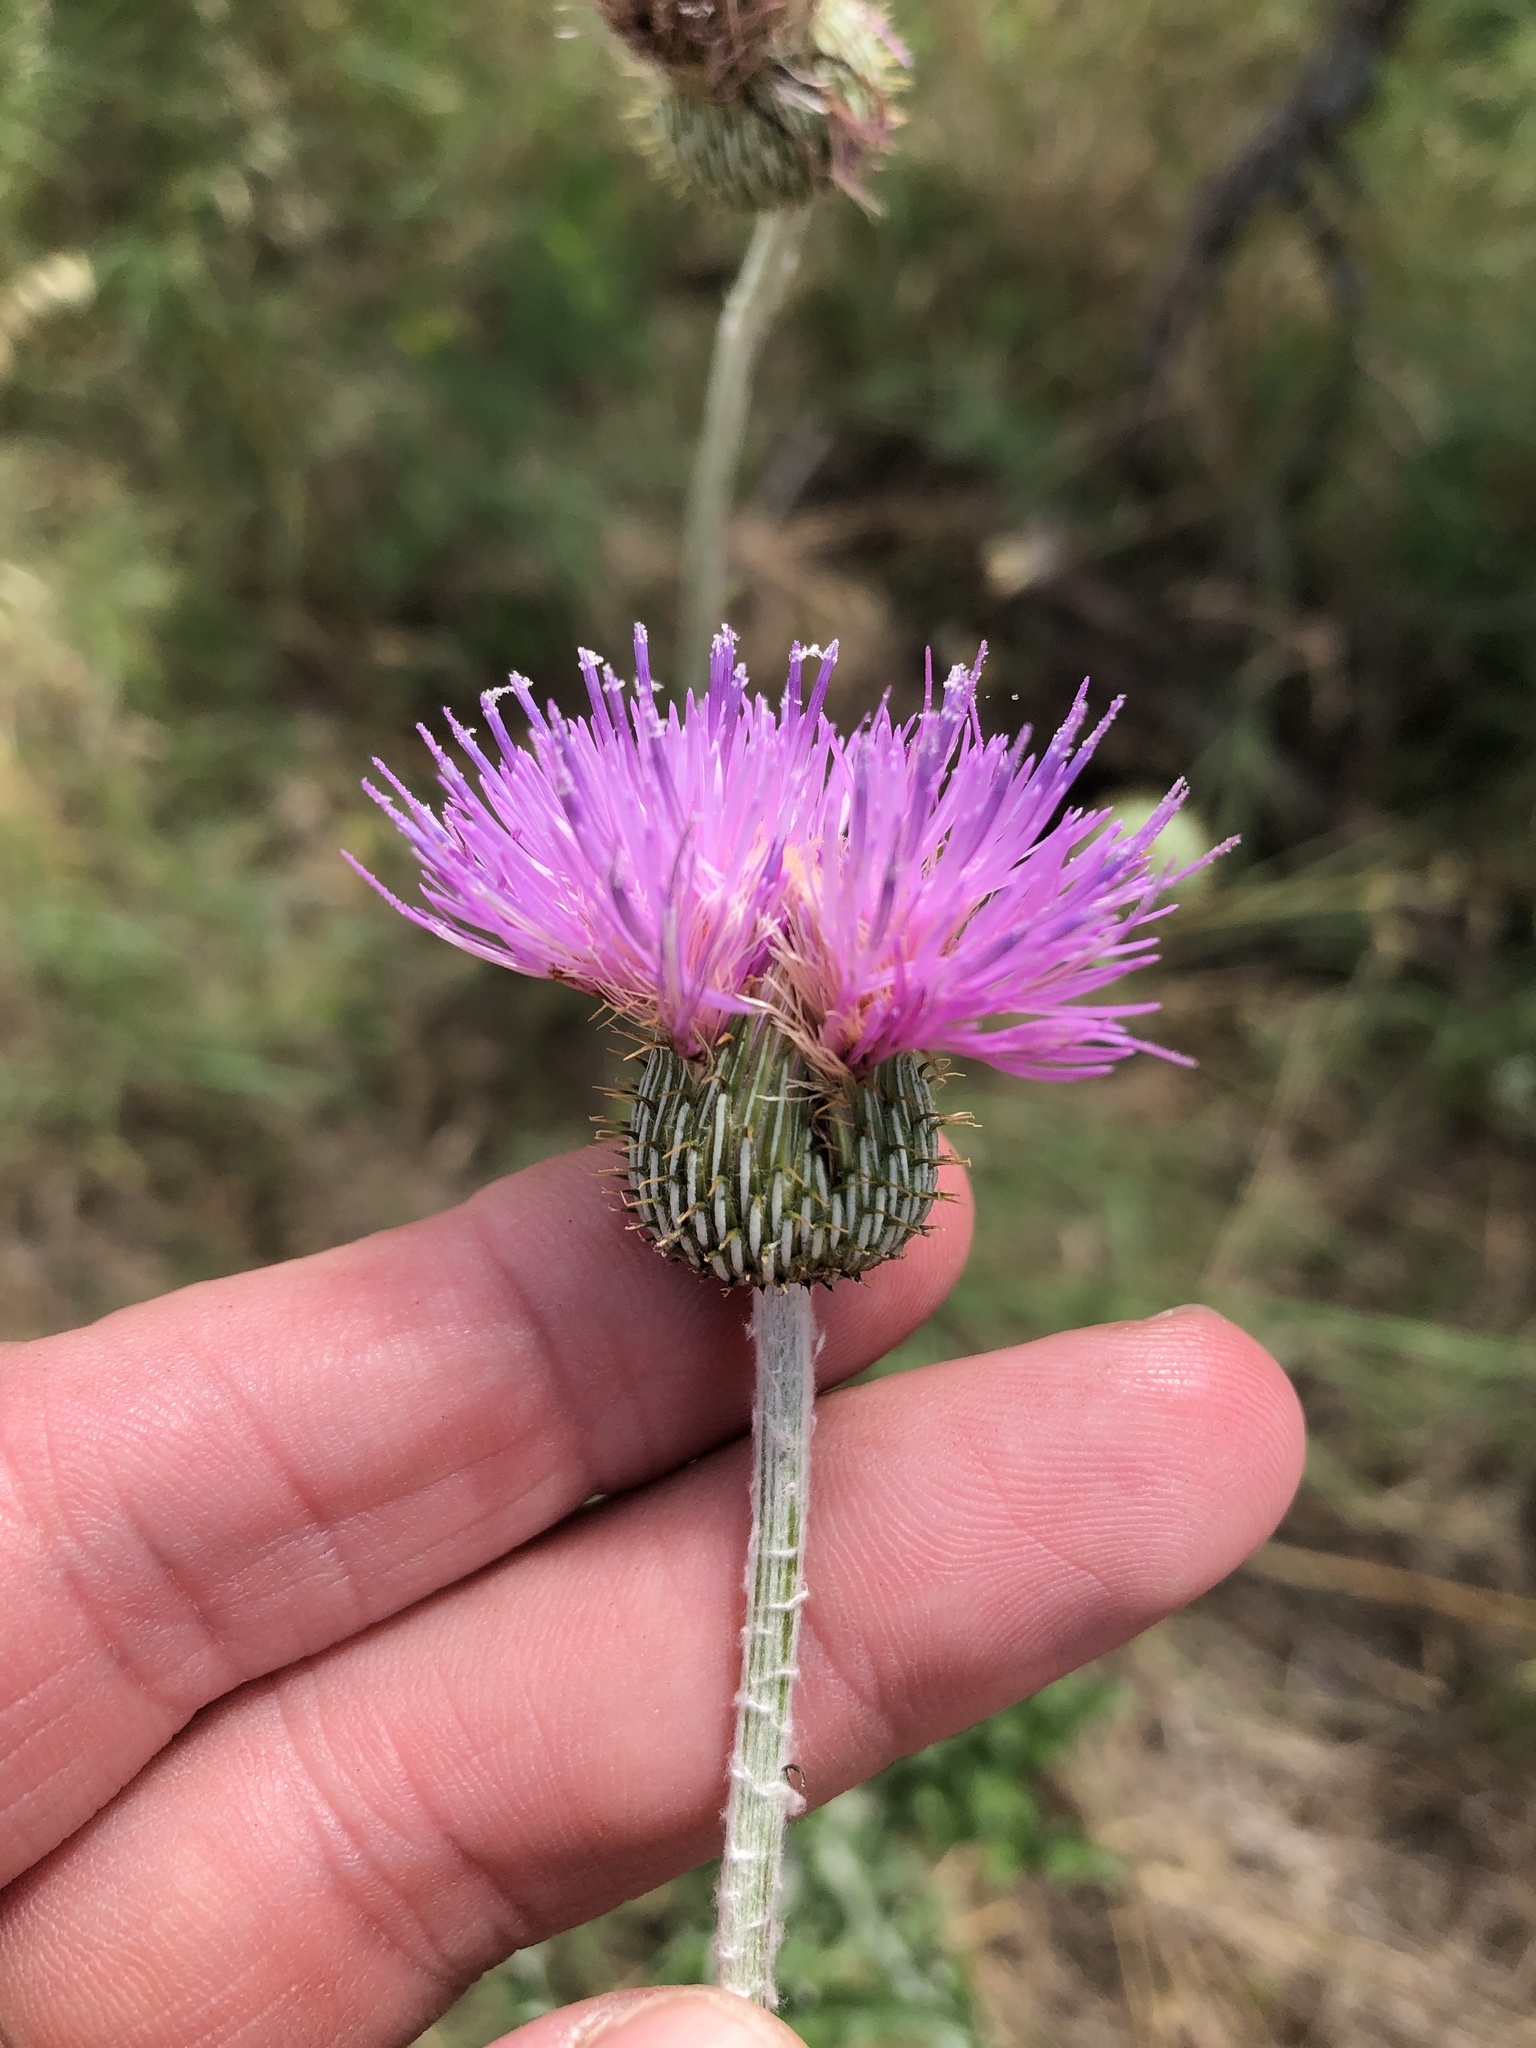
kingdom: Plantae
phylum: Tracheophyta
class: Magnoliopsida
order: Asterales
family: Asteraceae
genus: Cirsium
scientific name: Cirsium texanum
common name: Texas purple thistle
